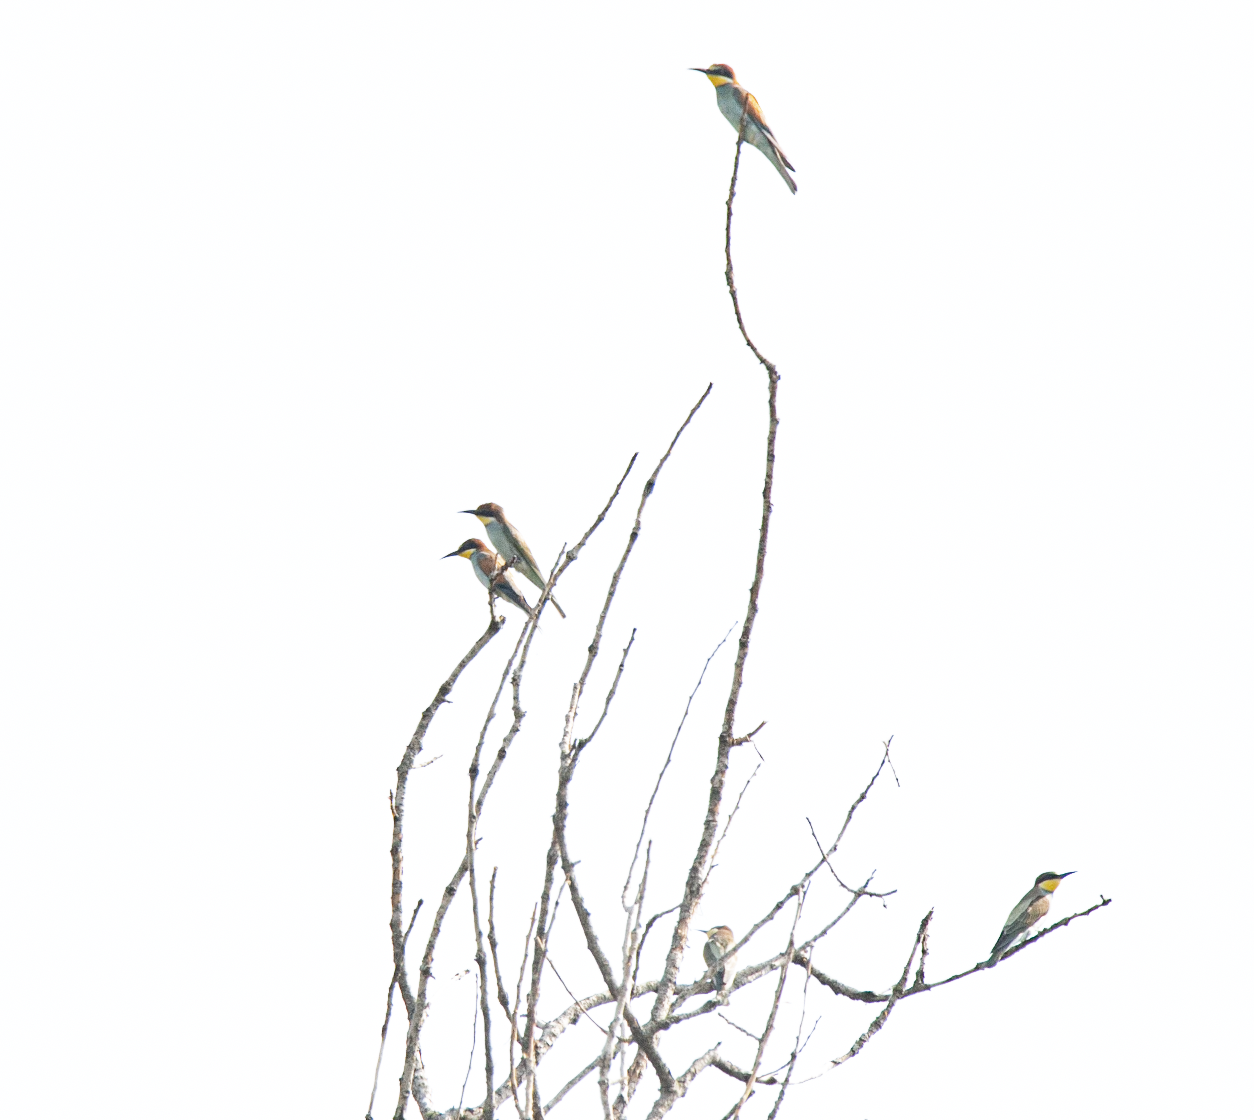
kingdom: Animalia
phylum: Chordata
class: Aves
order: Coraciiformes
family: Meropidae
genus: Merops
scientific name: Merops apiaster
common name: European bee-eater
